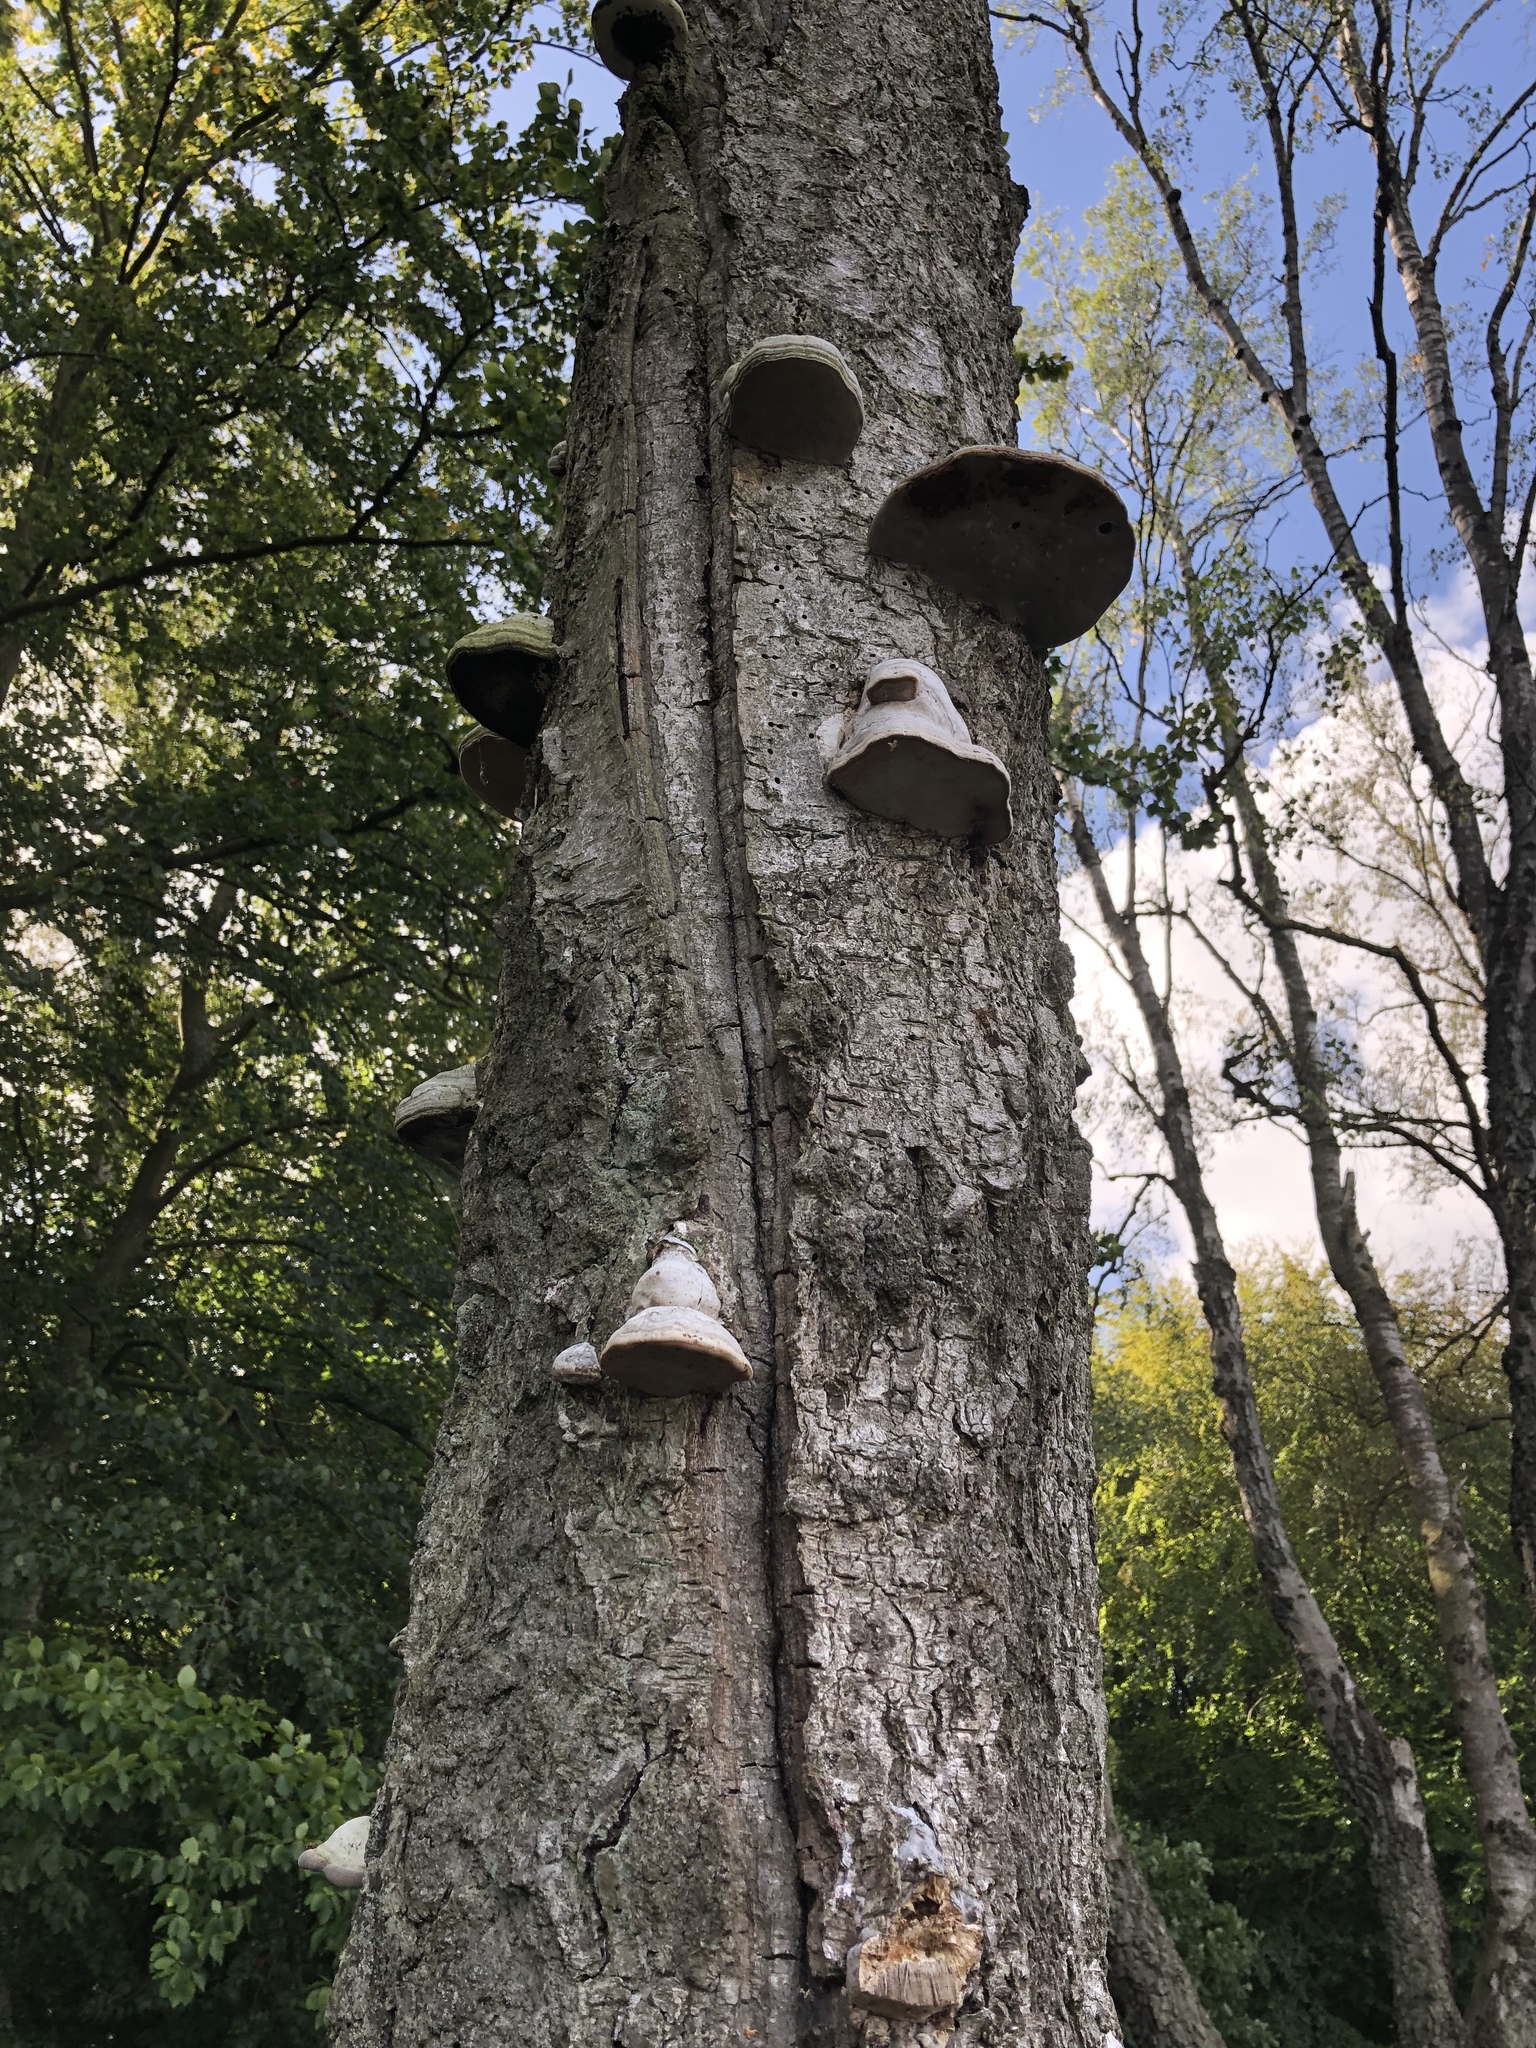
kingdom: Fungi
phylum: Basidiomycota
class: Agaricomycetes
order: Polyporales
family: Polyporaceae
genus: Fomes
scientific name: Fomes fomentarius
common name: Hoof fungus
